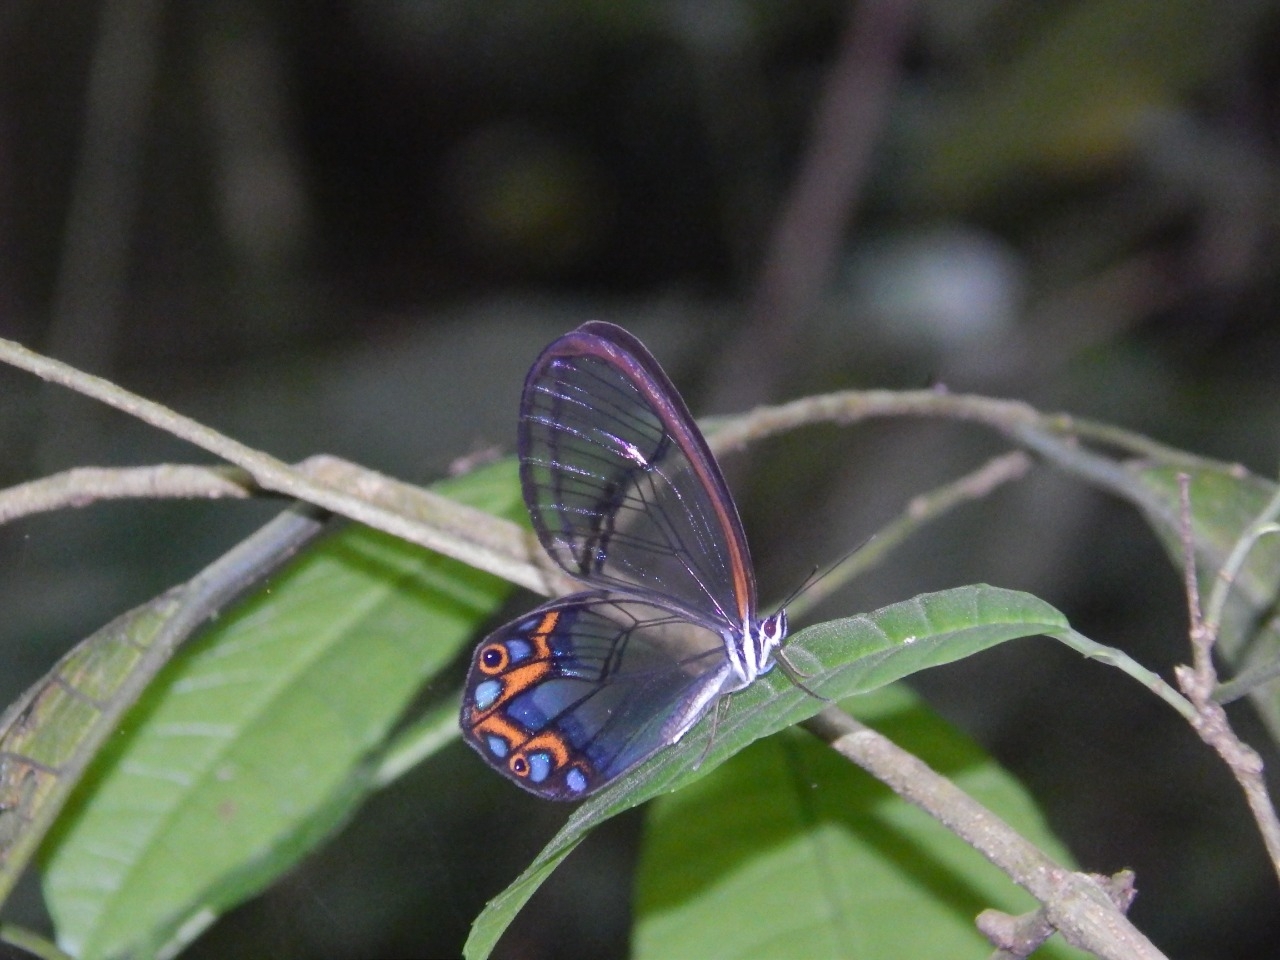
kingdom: Animalia
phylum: Arthropoda
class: Insecta
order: Lepidoptera
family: Nymphalidae
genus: Pseudohaetera
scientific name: Pseudohaetera hypaesia
